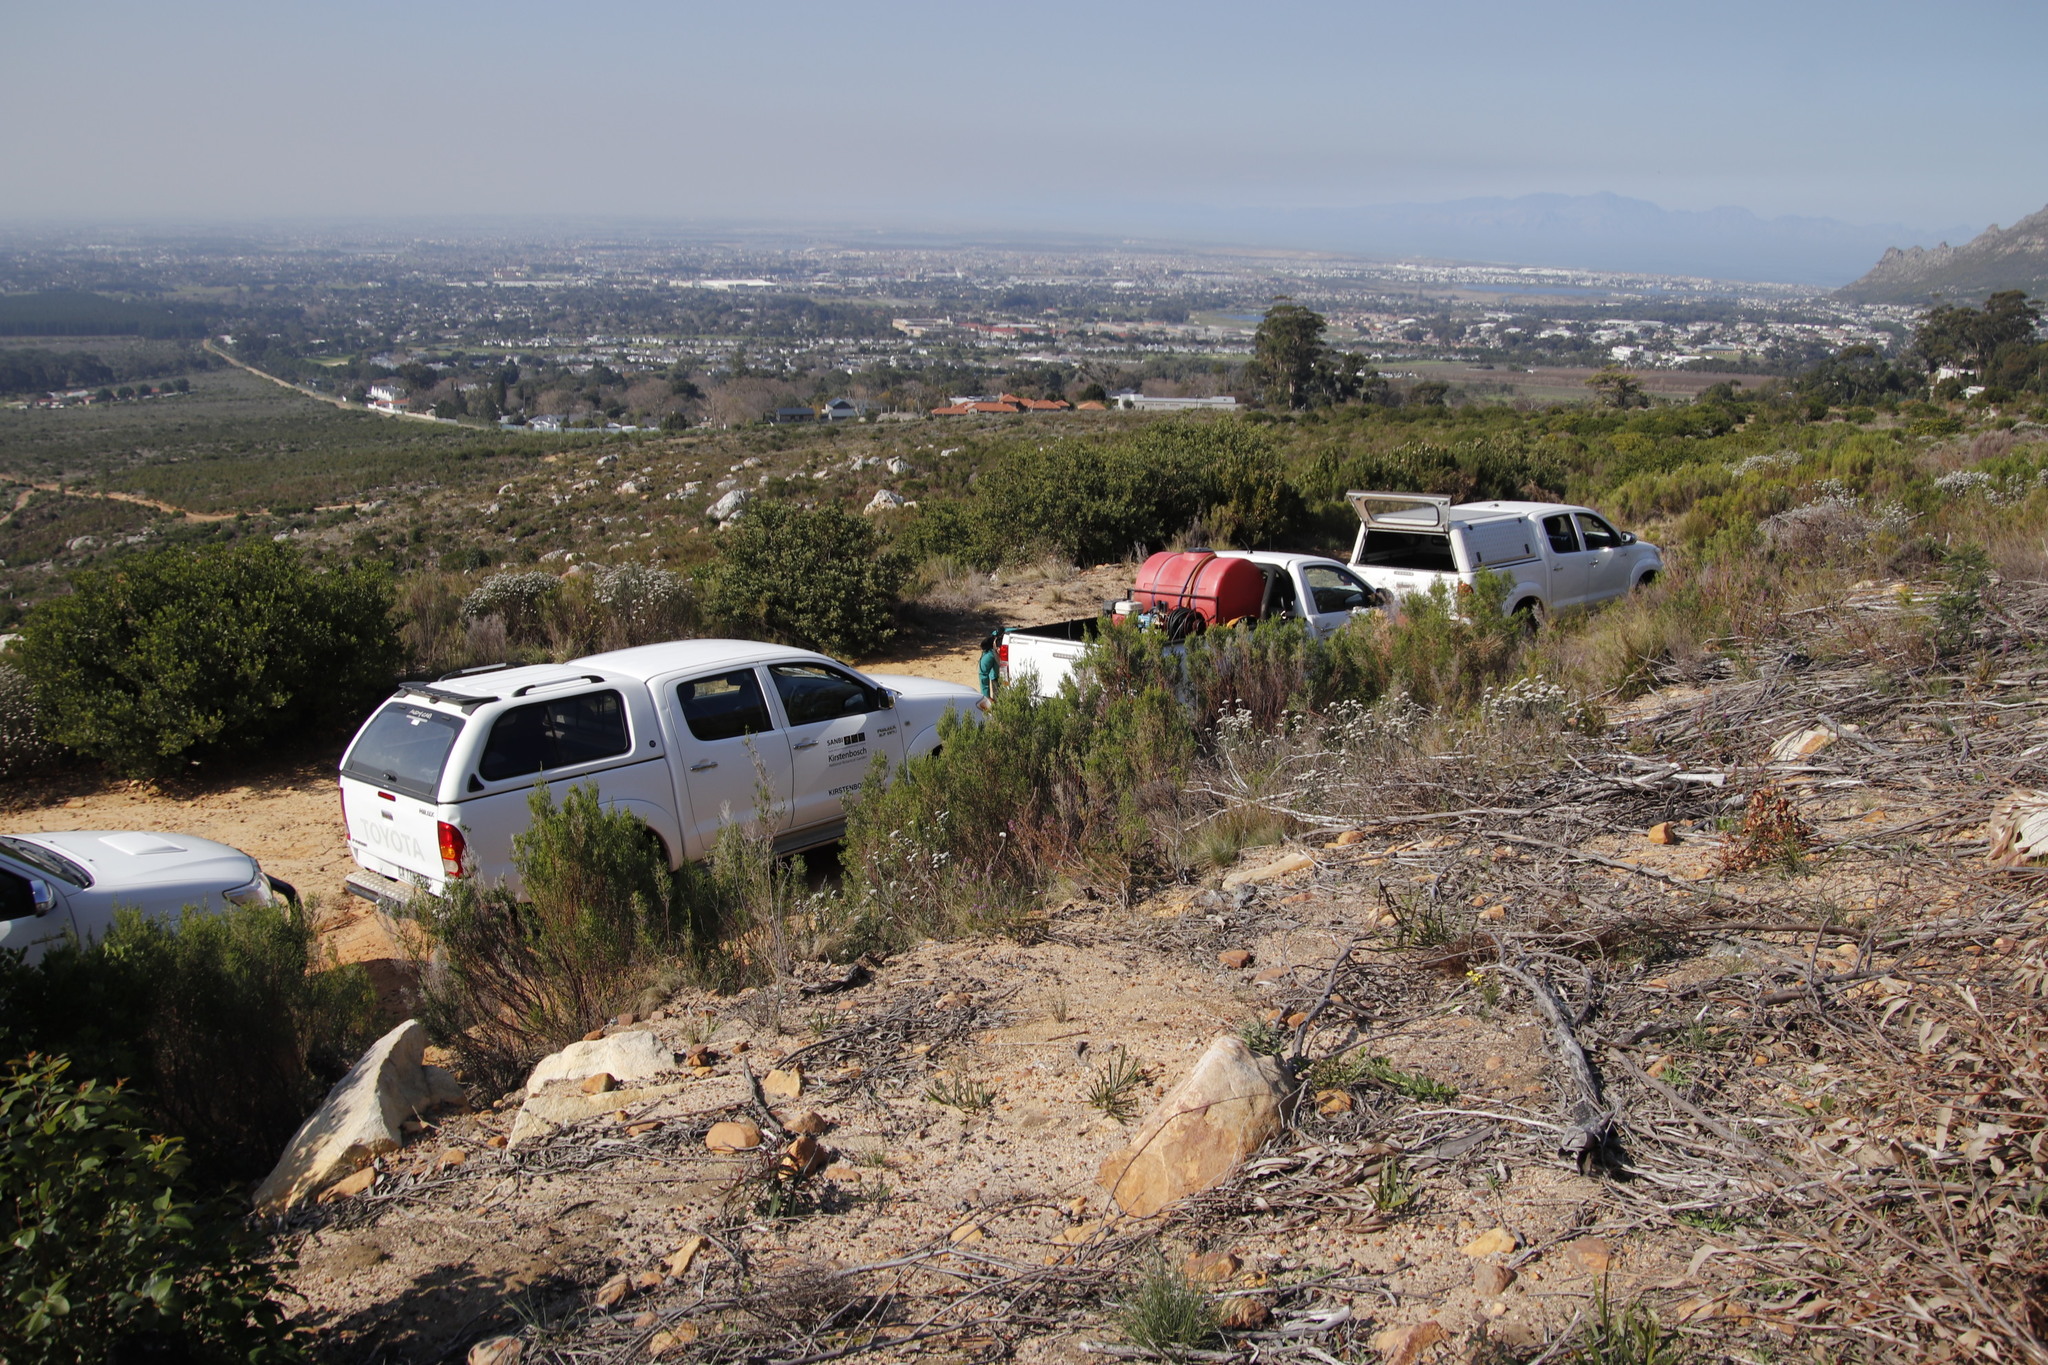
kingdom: Plantae
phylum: Tracheophyta
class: Magnoliopsida
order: Malvales
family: Thymelaeaceae
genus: Passerina
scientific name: Passerina corymbosa
